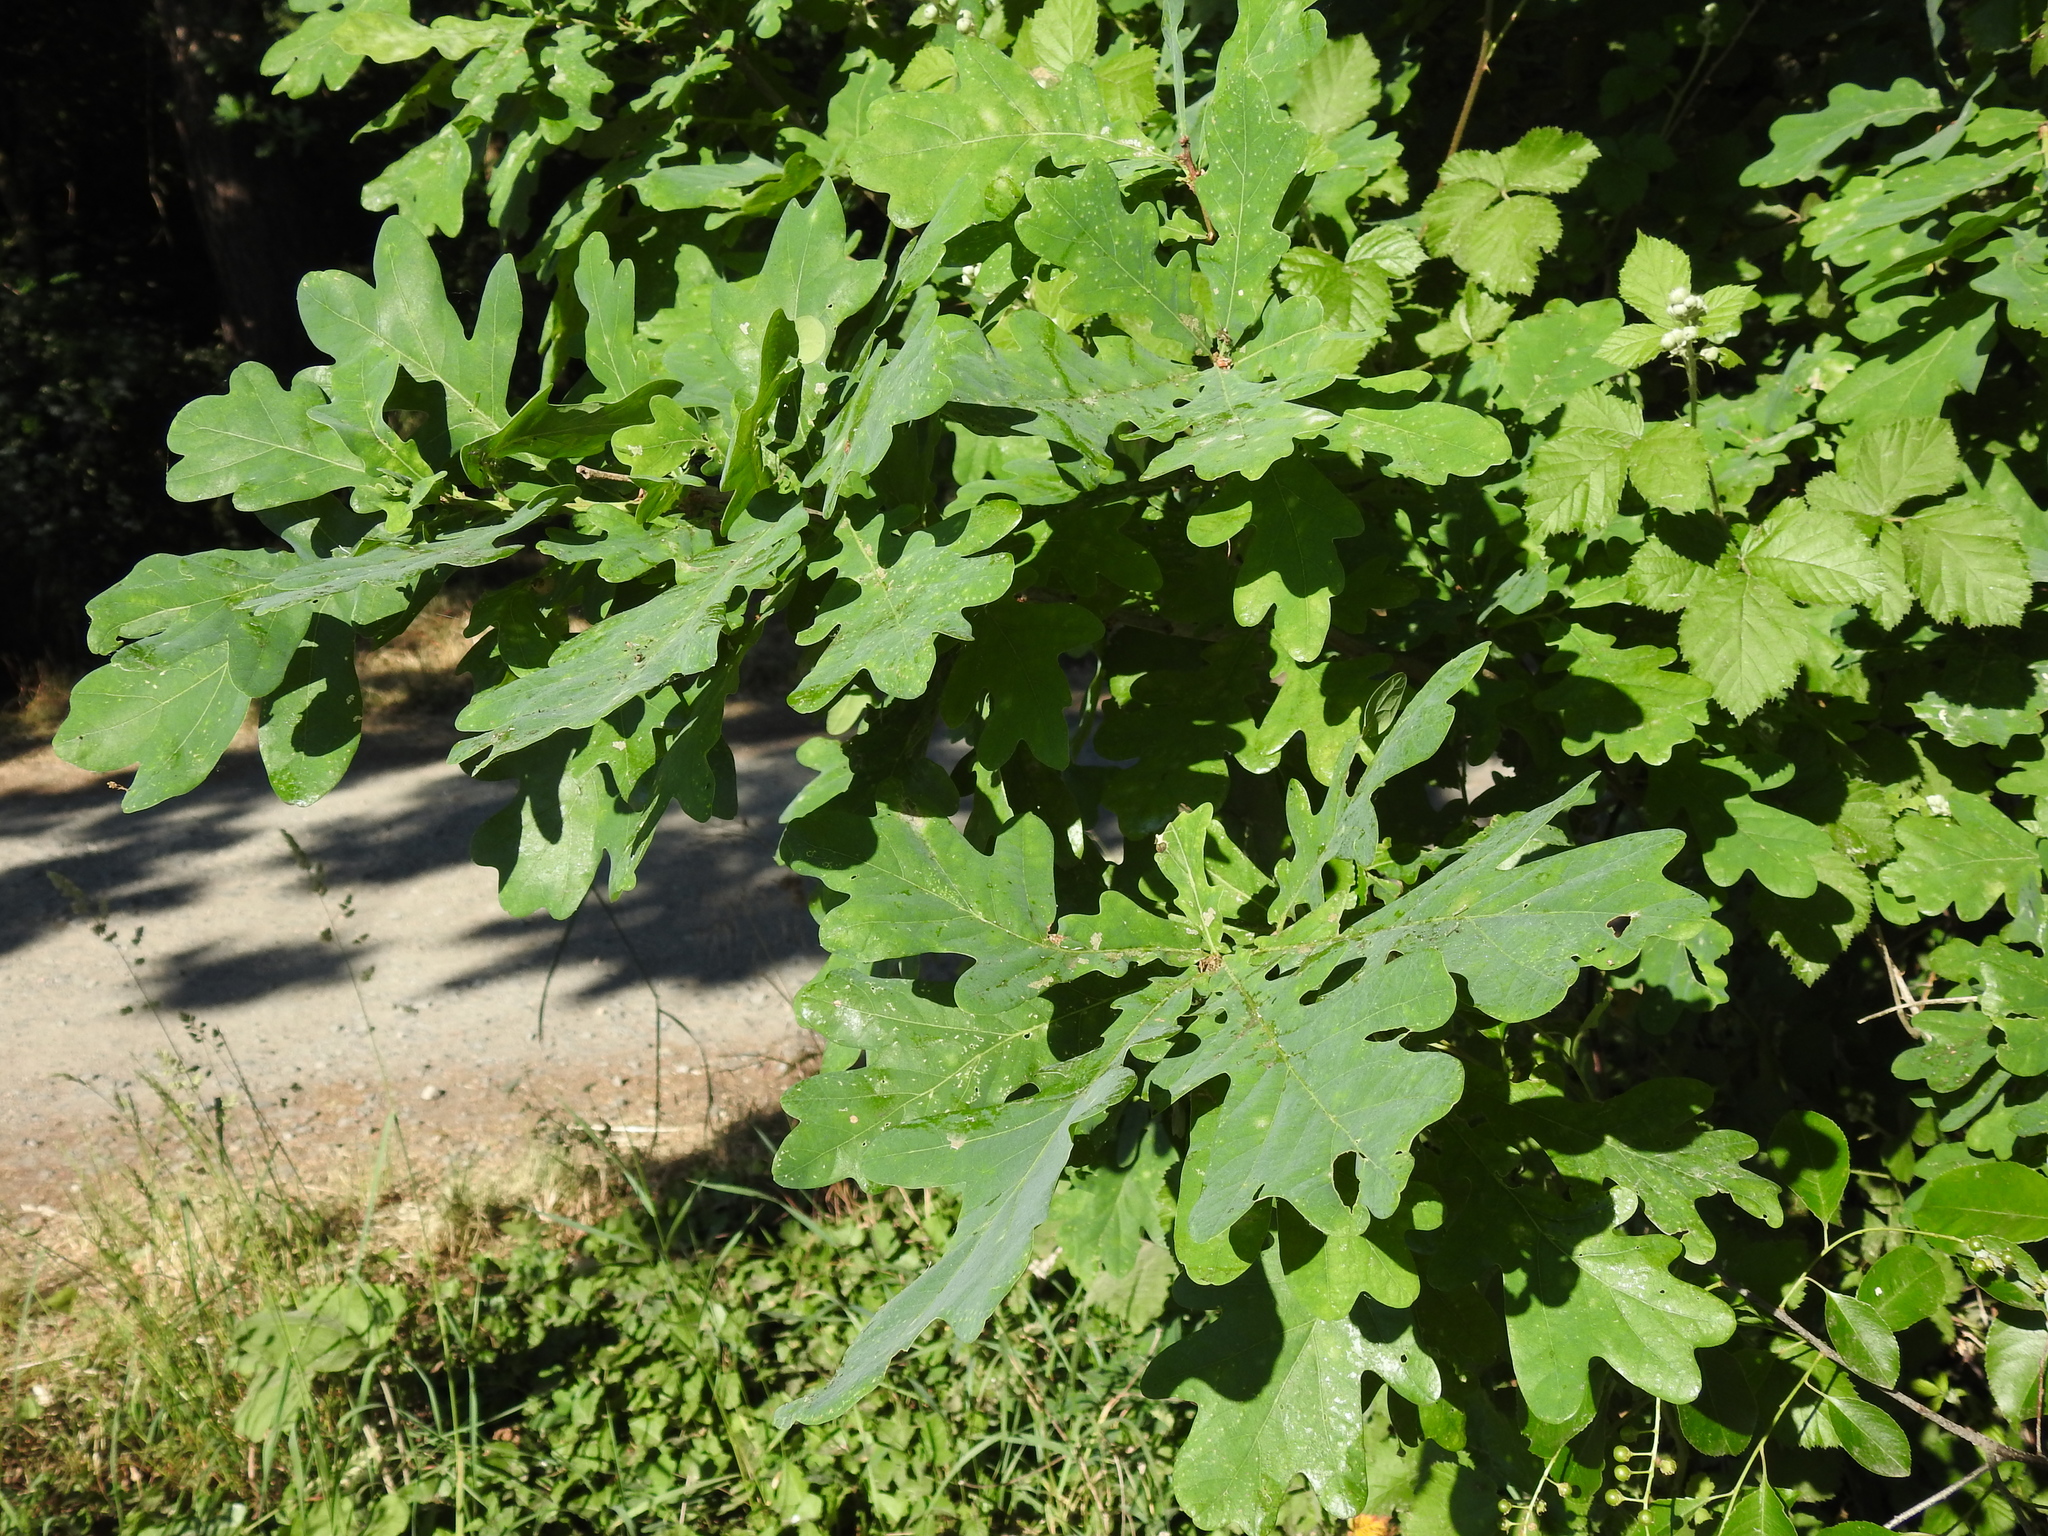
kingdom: Plantae
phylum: Tracheophyta
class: Magnoliopsida
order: Fagales
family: Fagaceae
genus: Quercus
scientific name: Quercus robur
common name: Pedunculate oak
